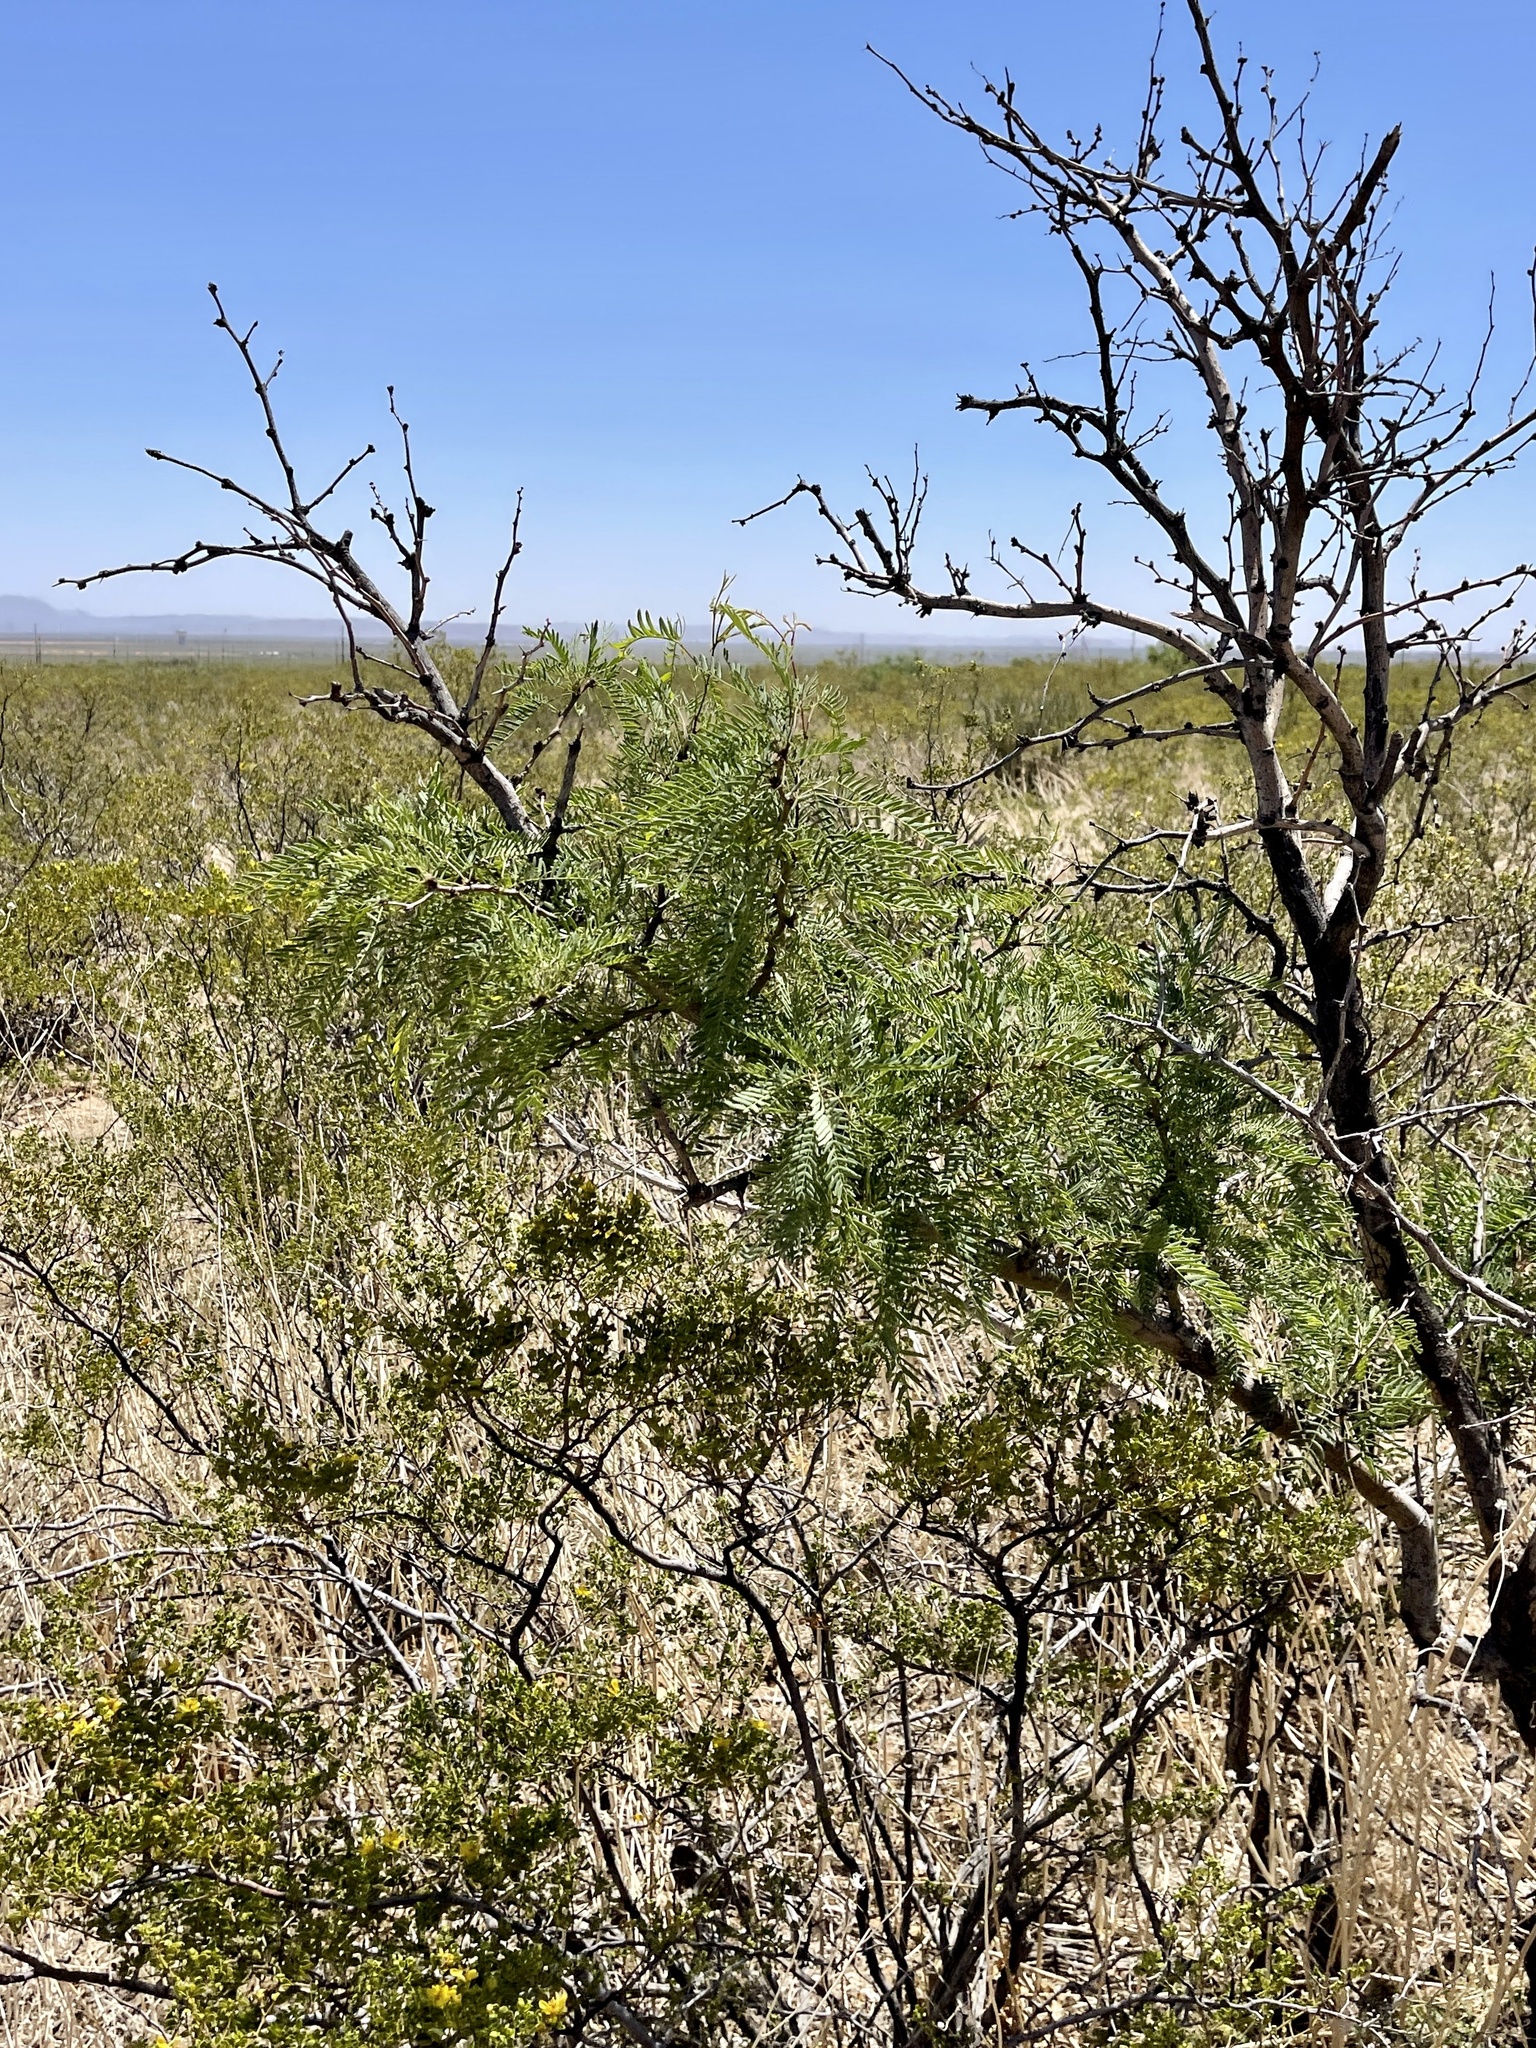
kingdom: Plantae
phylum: Tracheophyta
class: Magnoliopsida
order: Fabales
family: Fabaceae
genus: Prosopis
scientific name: Prosopis pubescens
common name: Screw-bean
